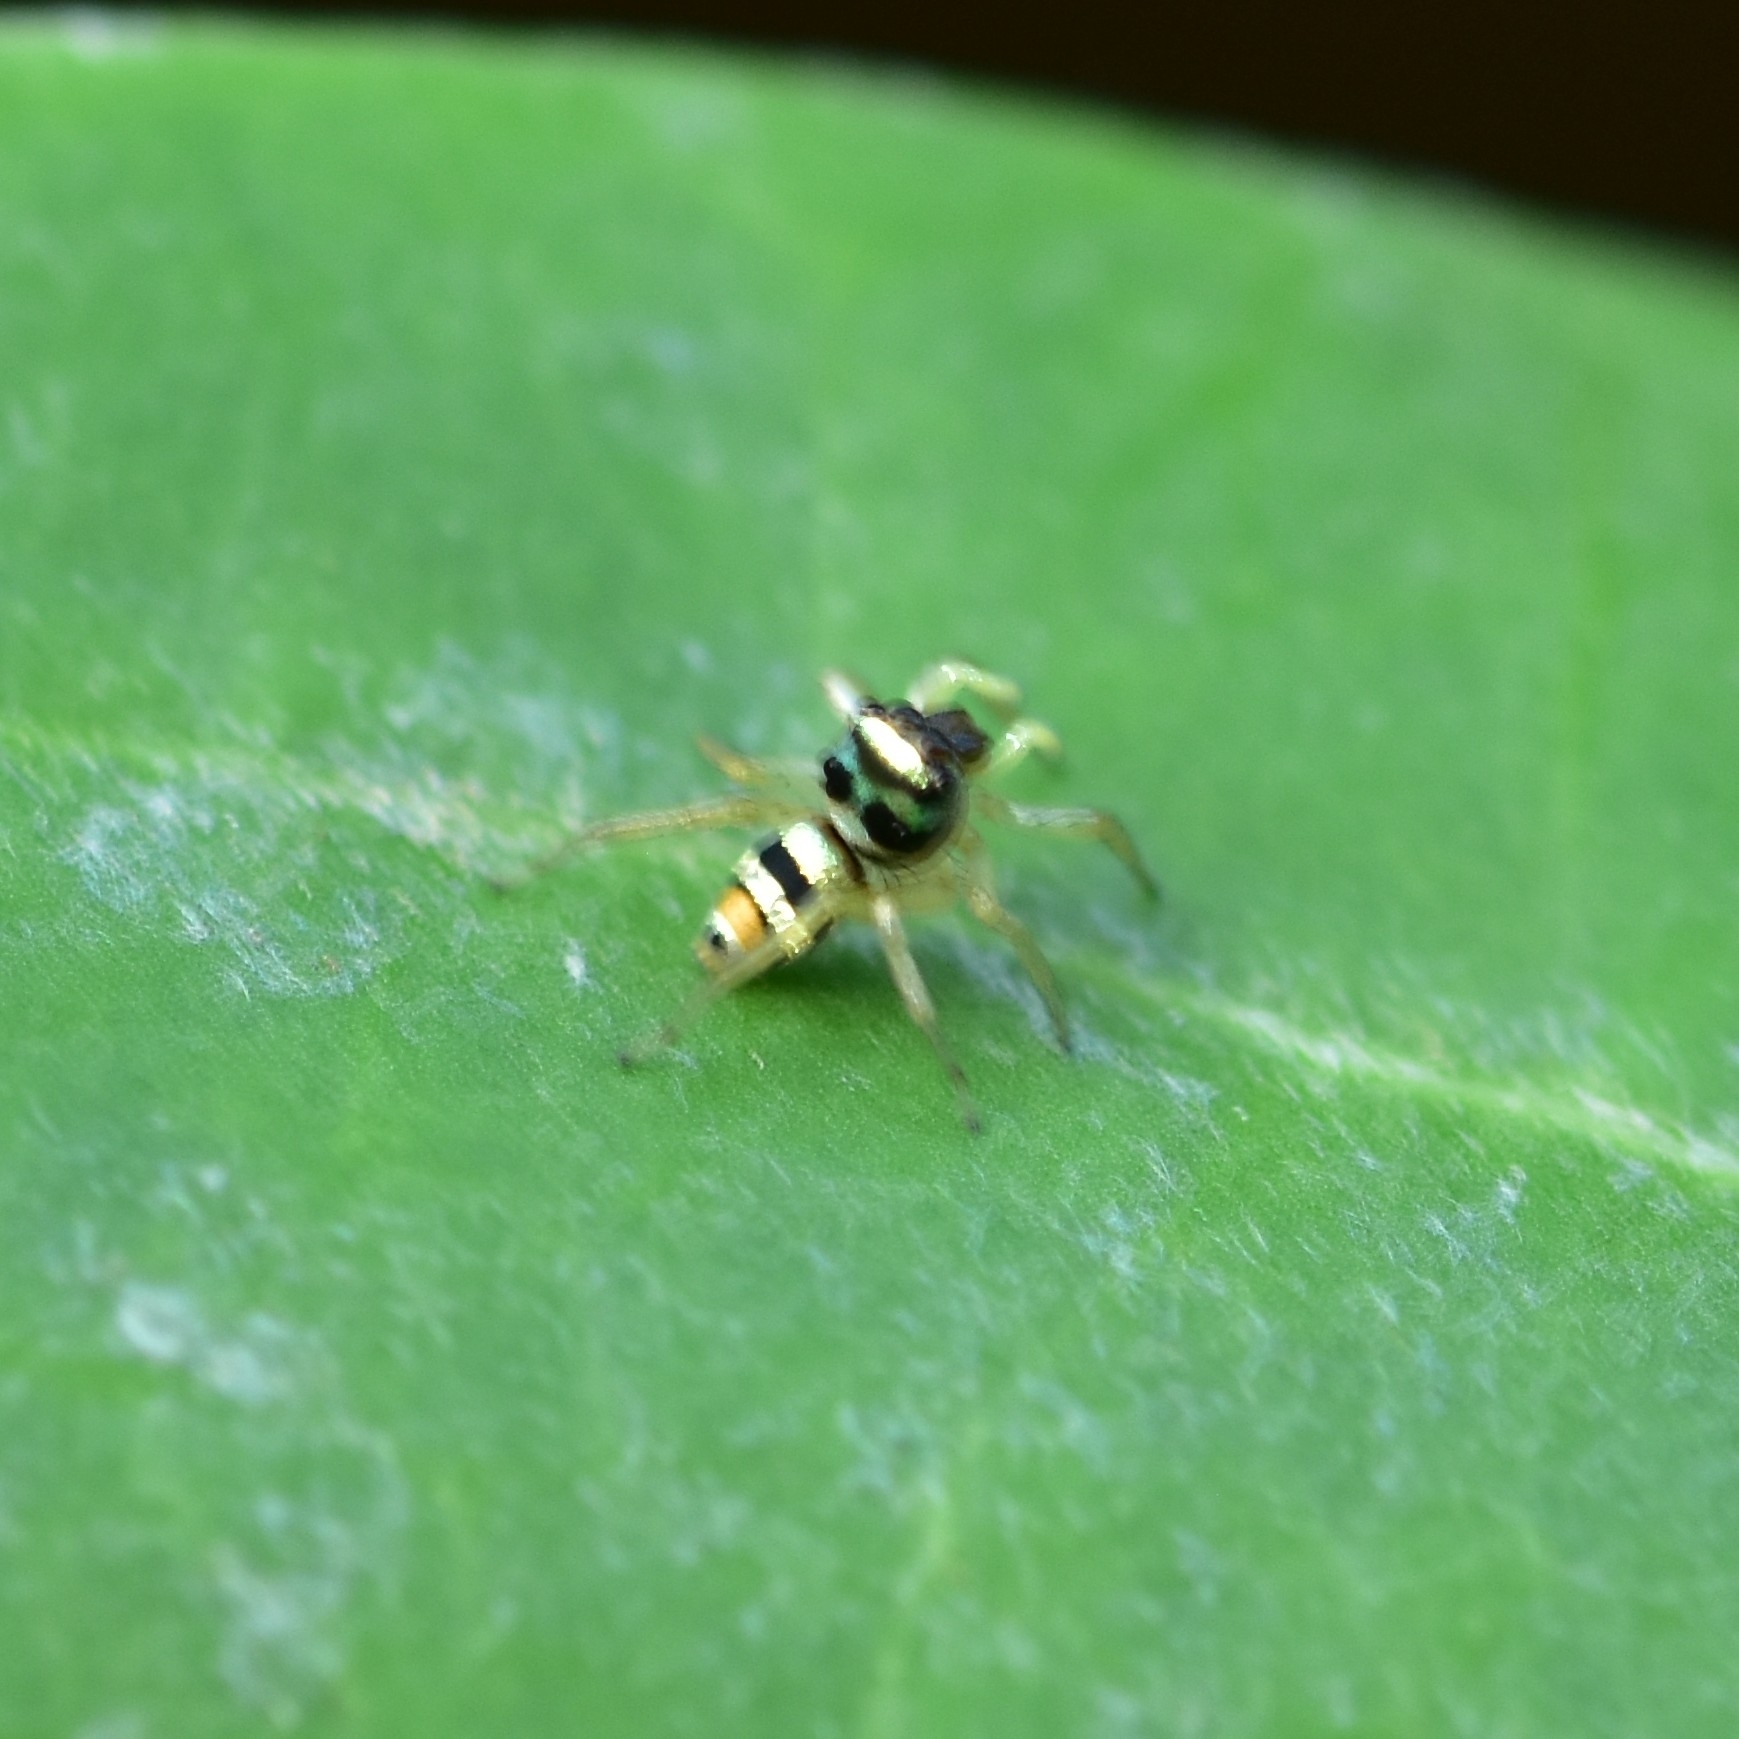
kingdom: Animalia
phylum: Arthropoda
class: Arachnida
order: Araneae
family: Salticidae
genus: Phintella
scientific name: Phintella vittata
